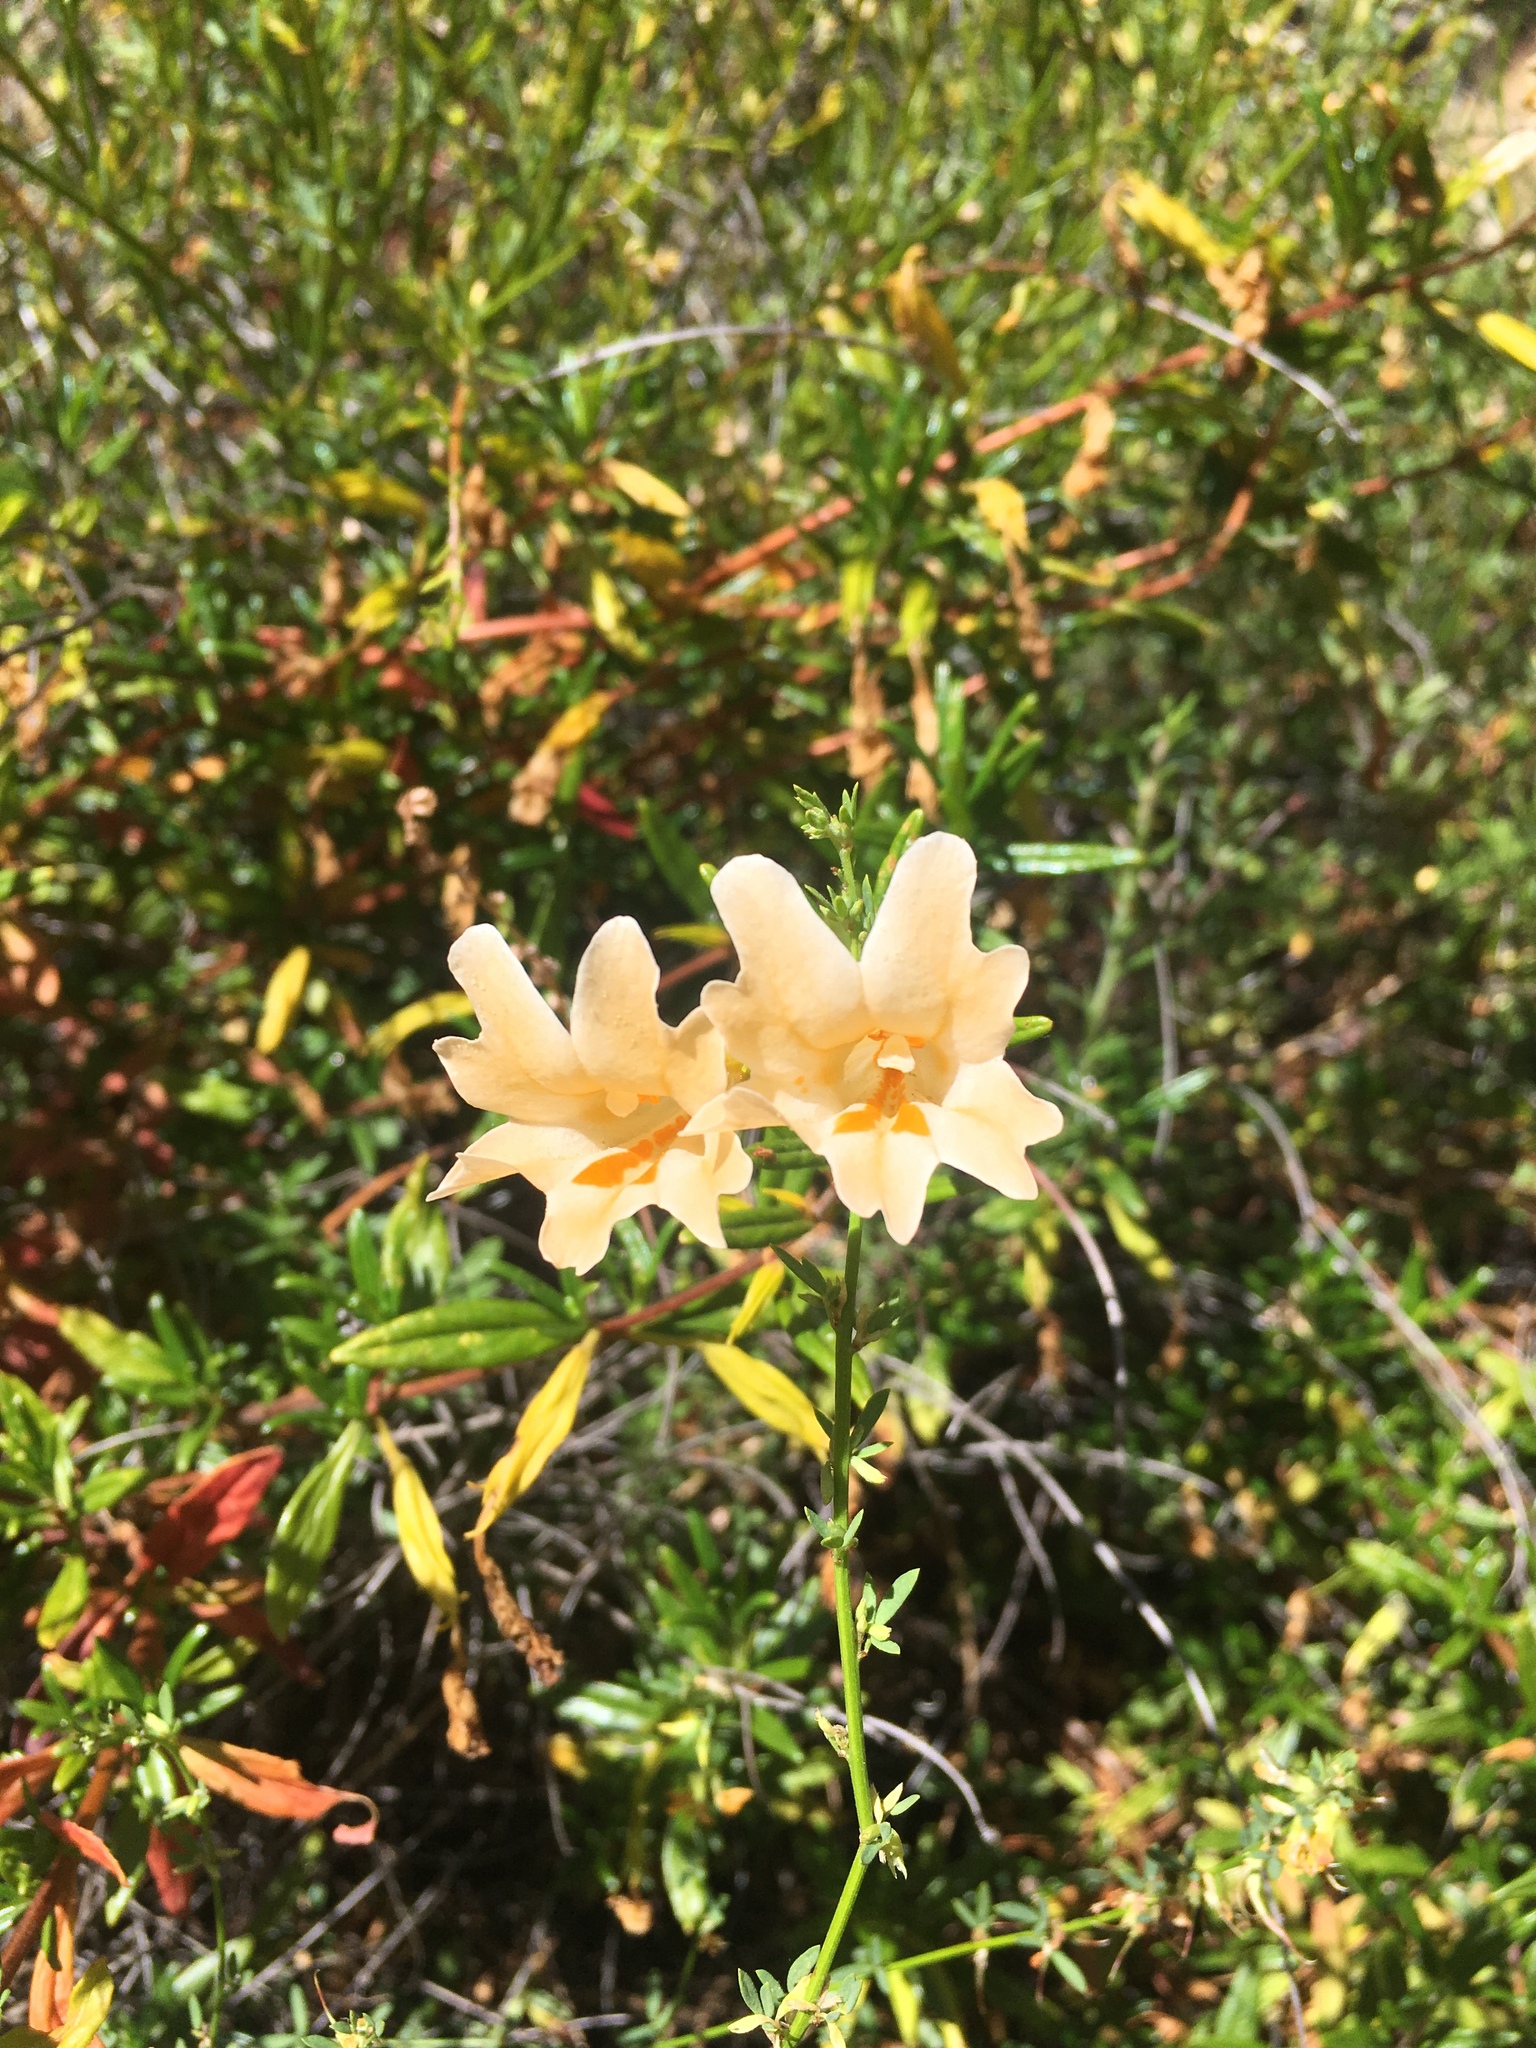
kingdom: Plantae
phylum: Tracheophyta
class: Magnoliopsida
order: Lamiales
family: Phrymaceae
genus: Diplacus
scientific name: Diplacus linearis
